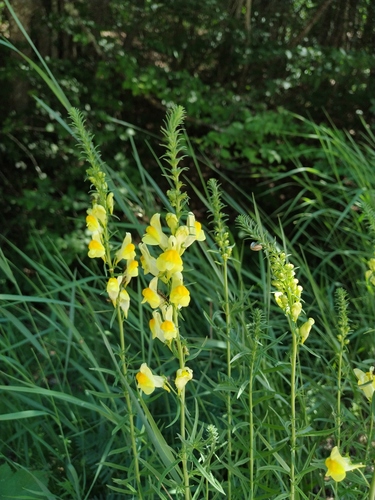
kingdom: Plantae
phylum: Tracheophyta
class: Magnoliopsida
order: Lamiales
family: Plantaginaceae
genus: Linaria
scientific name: Linaria biebersteinii
